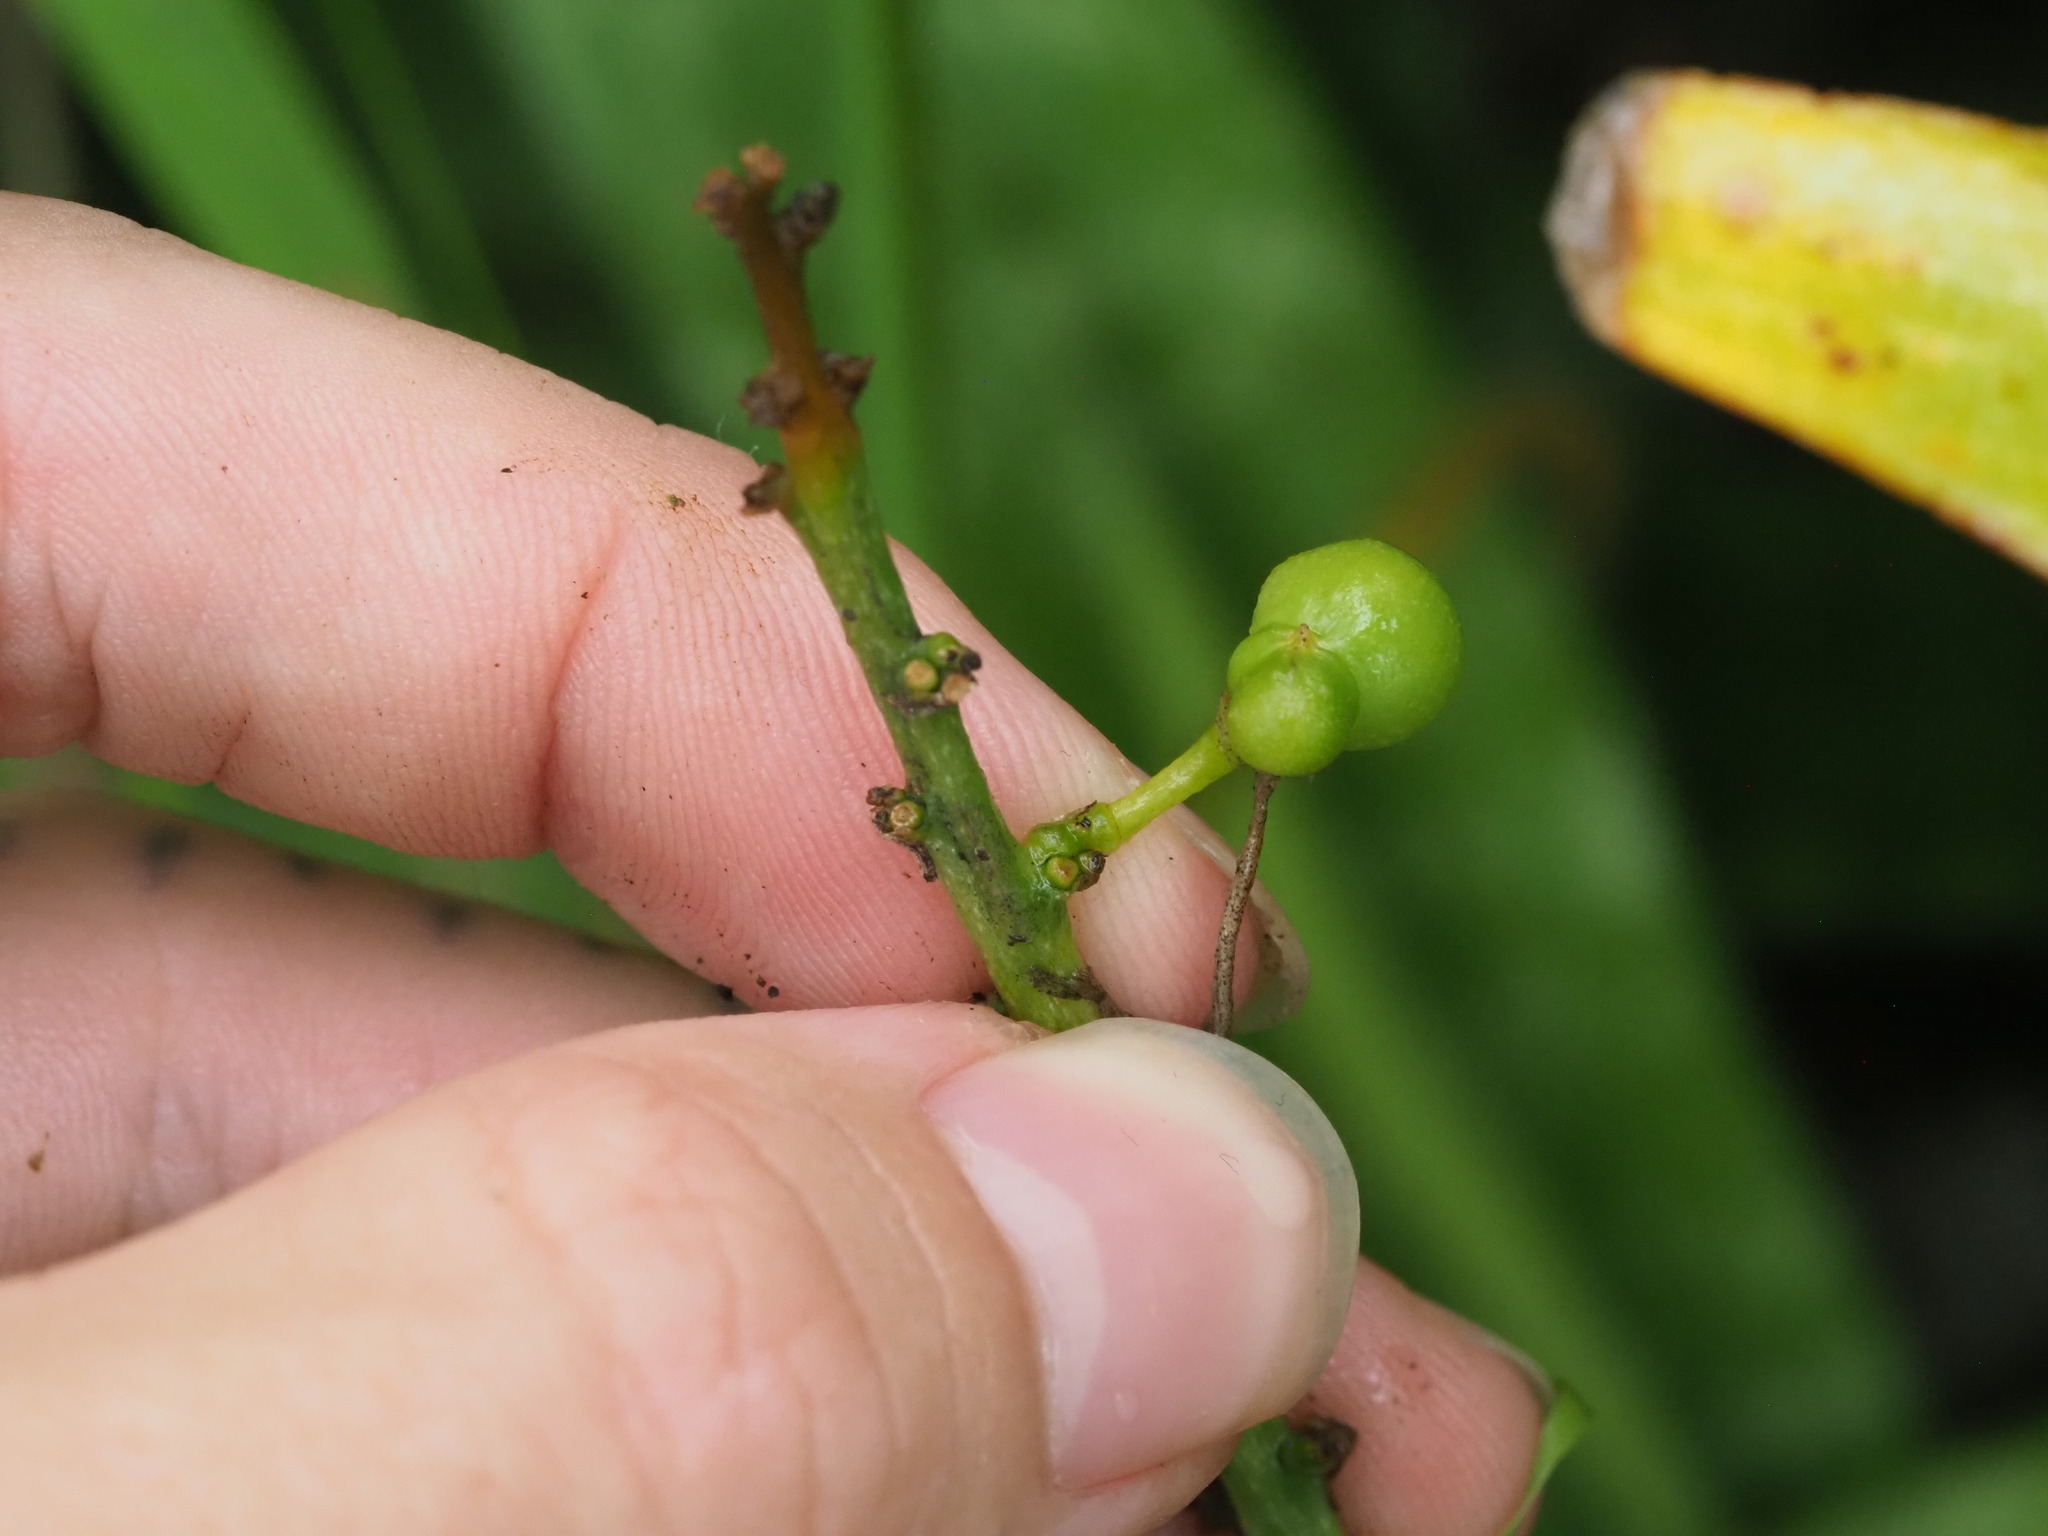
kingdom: Plantae
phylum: Tracheophyta
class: Liliopsida
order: Asparagales
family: Asparagaceae
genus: Dracaena
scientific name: Dracaena trifasciata
